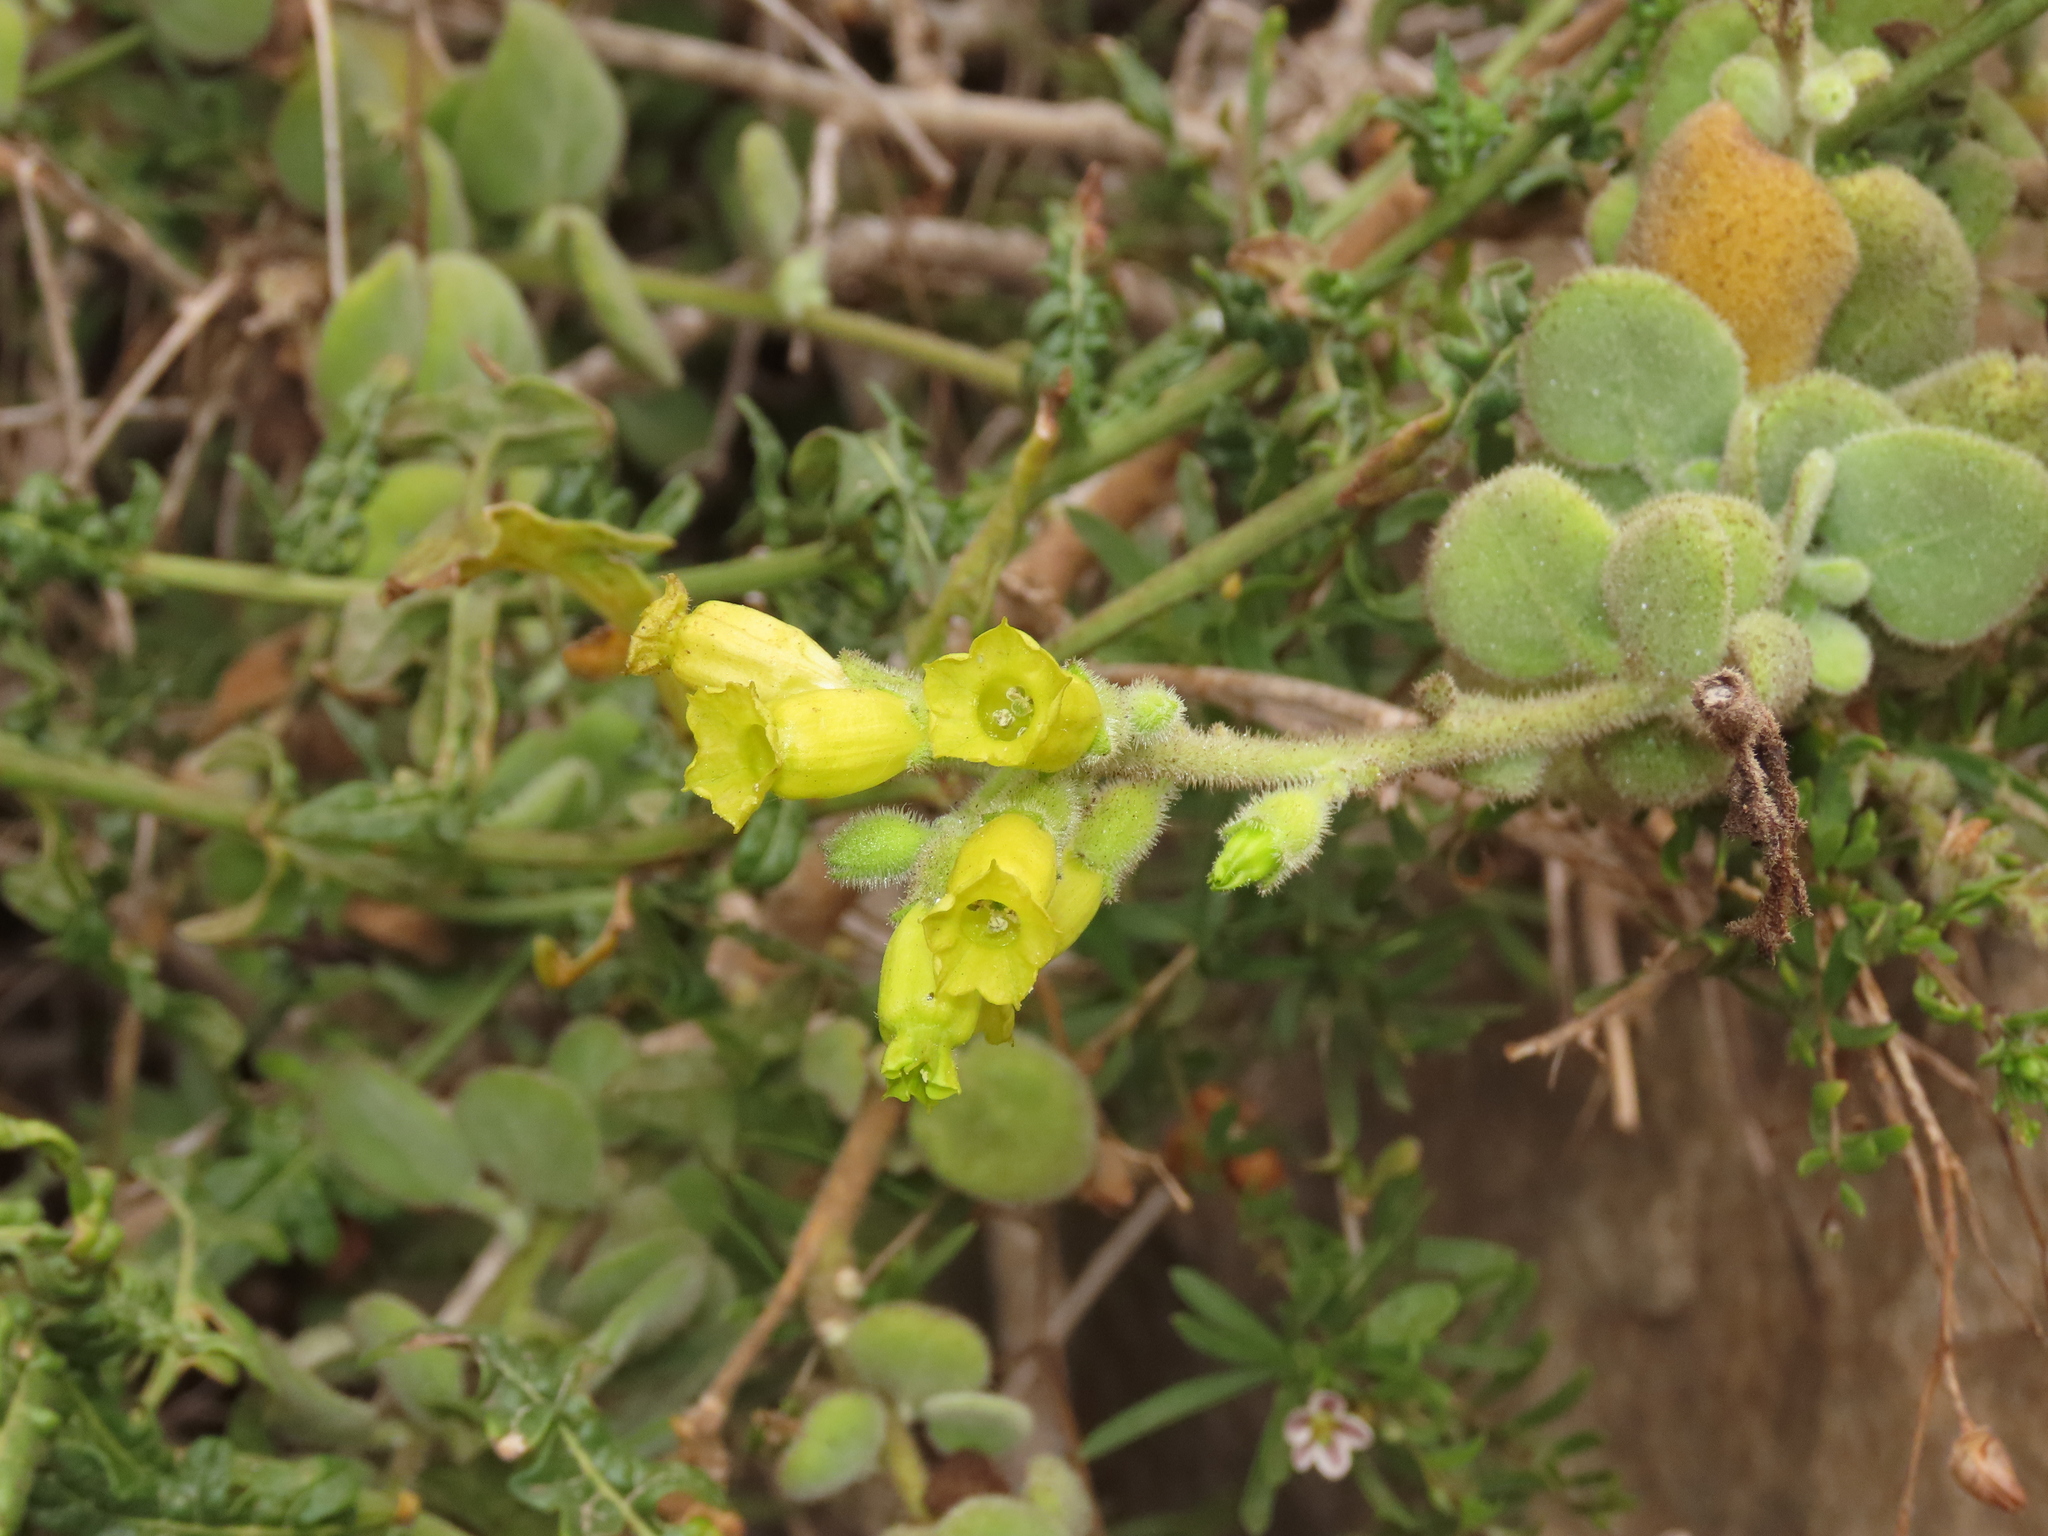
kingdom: Plantae
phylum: Tracheophyta
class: Magnoliopsida
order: Solanales
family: Solanaceae
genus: Nicotiana
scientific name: Nicotiana rupicola
